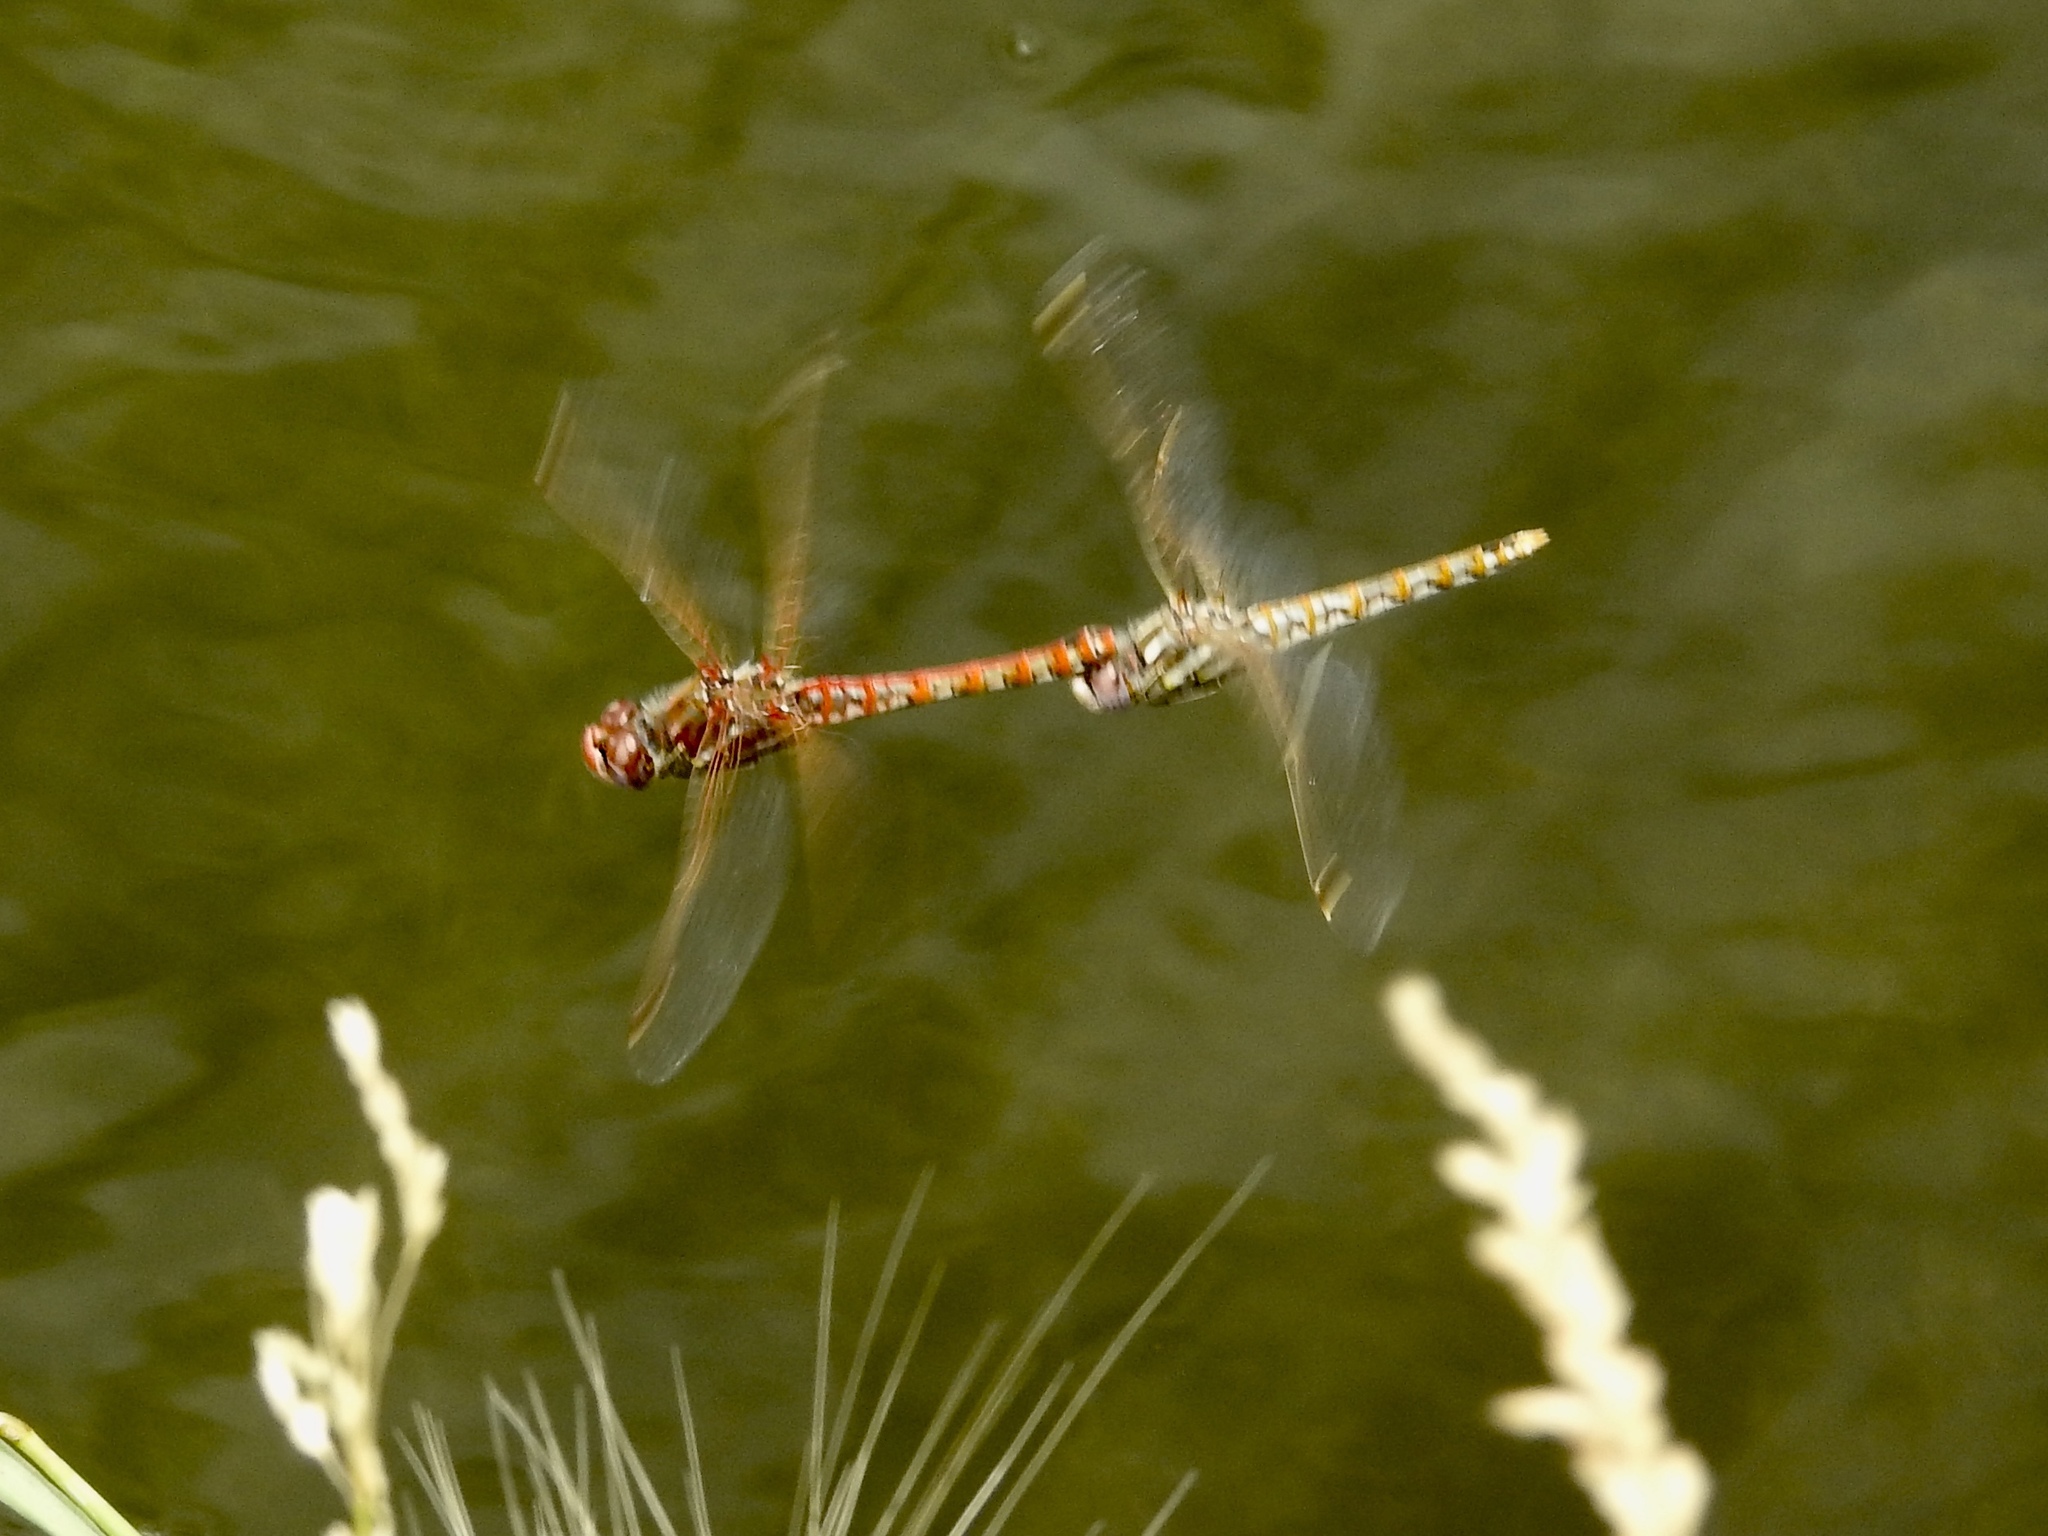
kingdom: Animalia
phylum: Arthropoda
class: Insecta
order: Odonata
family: Libellulidae
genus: Sympetrum
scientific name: Sympetrum corruptum
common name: Variegated meadowhawk
